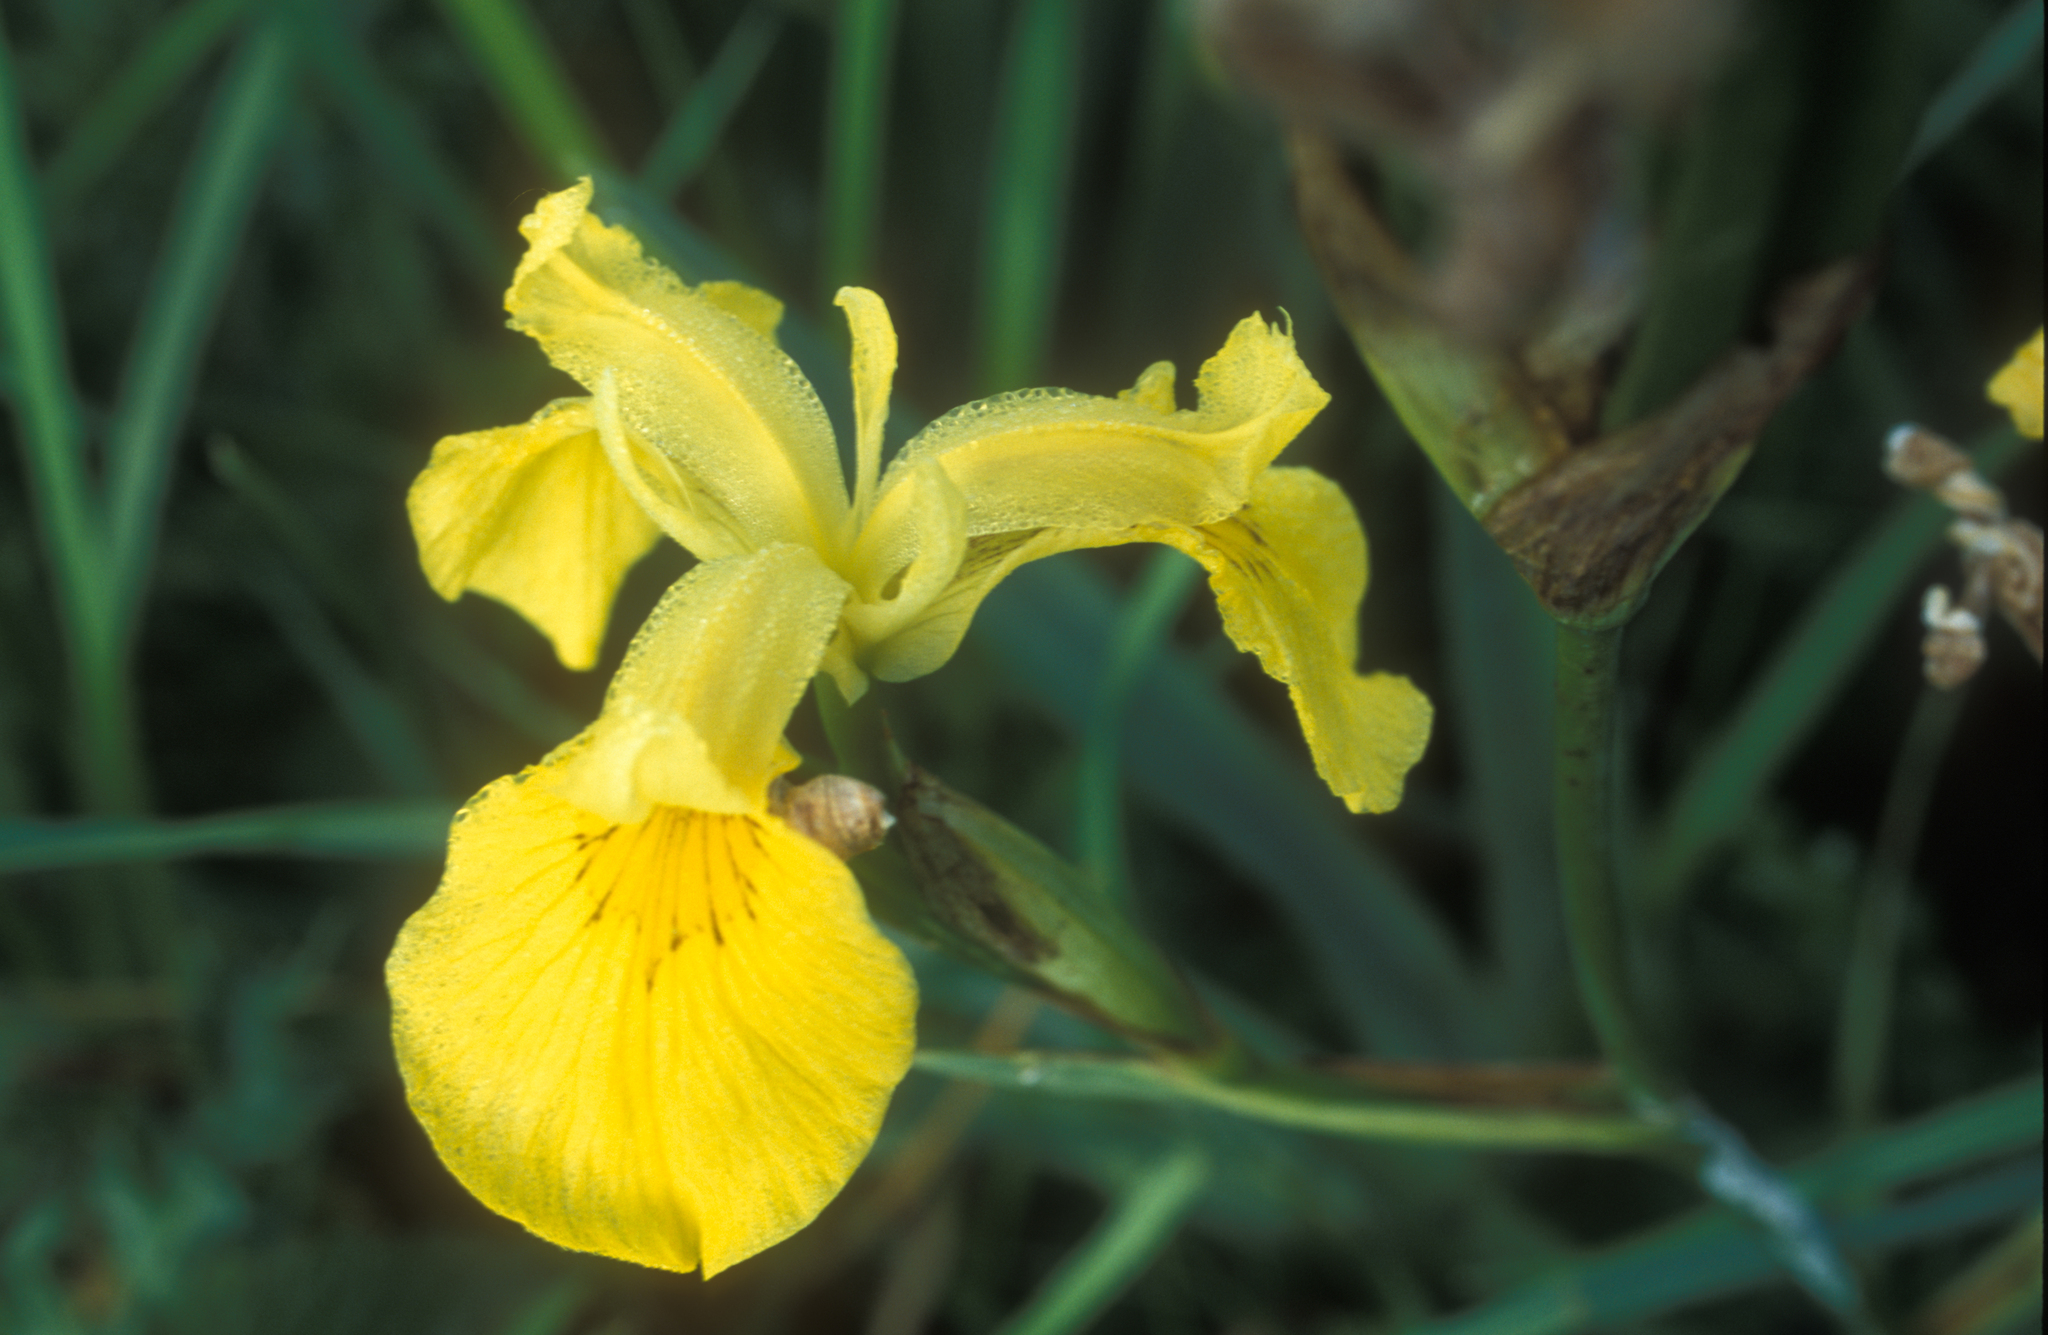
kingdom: Plantae
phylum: Tracheophyta
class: Liliopsida
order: Asparagales
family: Iridaceae
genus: Iris
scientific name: Iris pseudacorus
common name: Yellow flag
